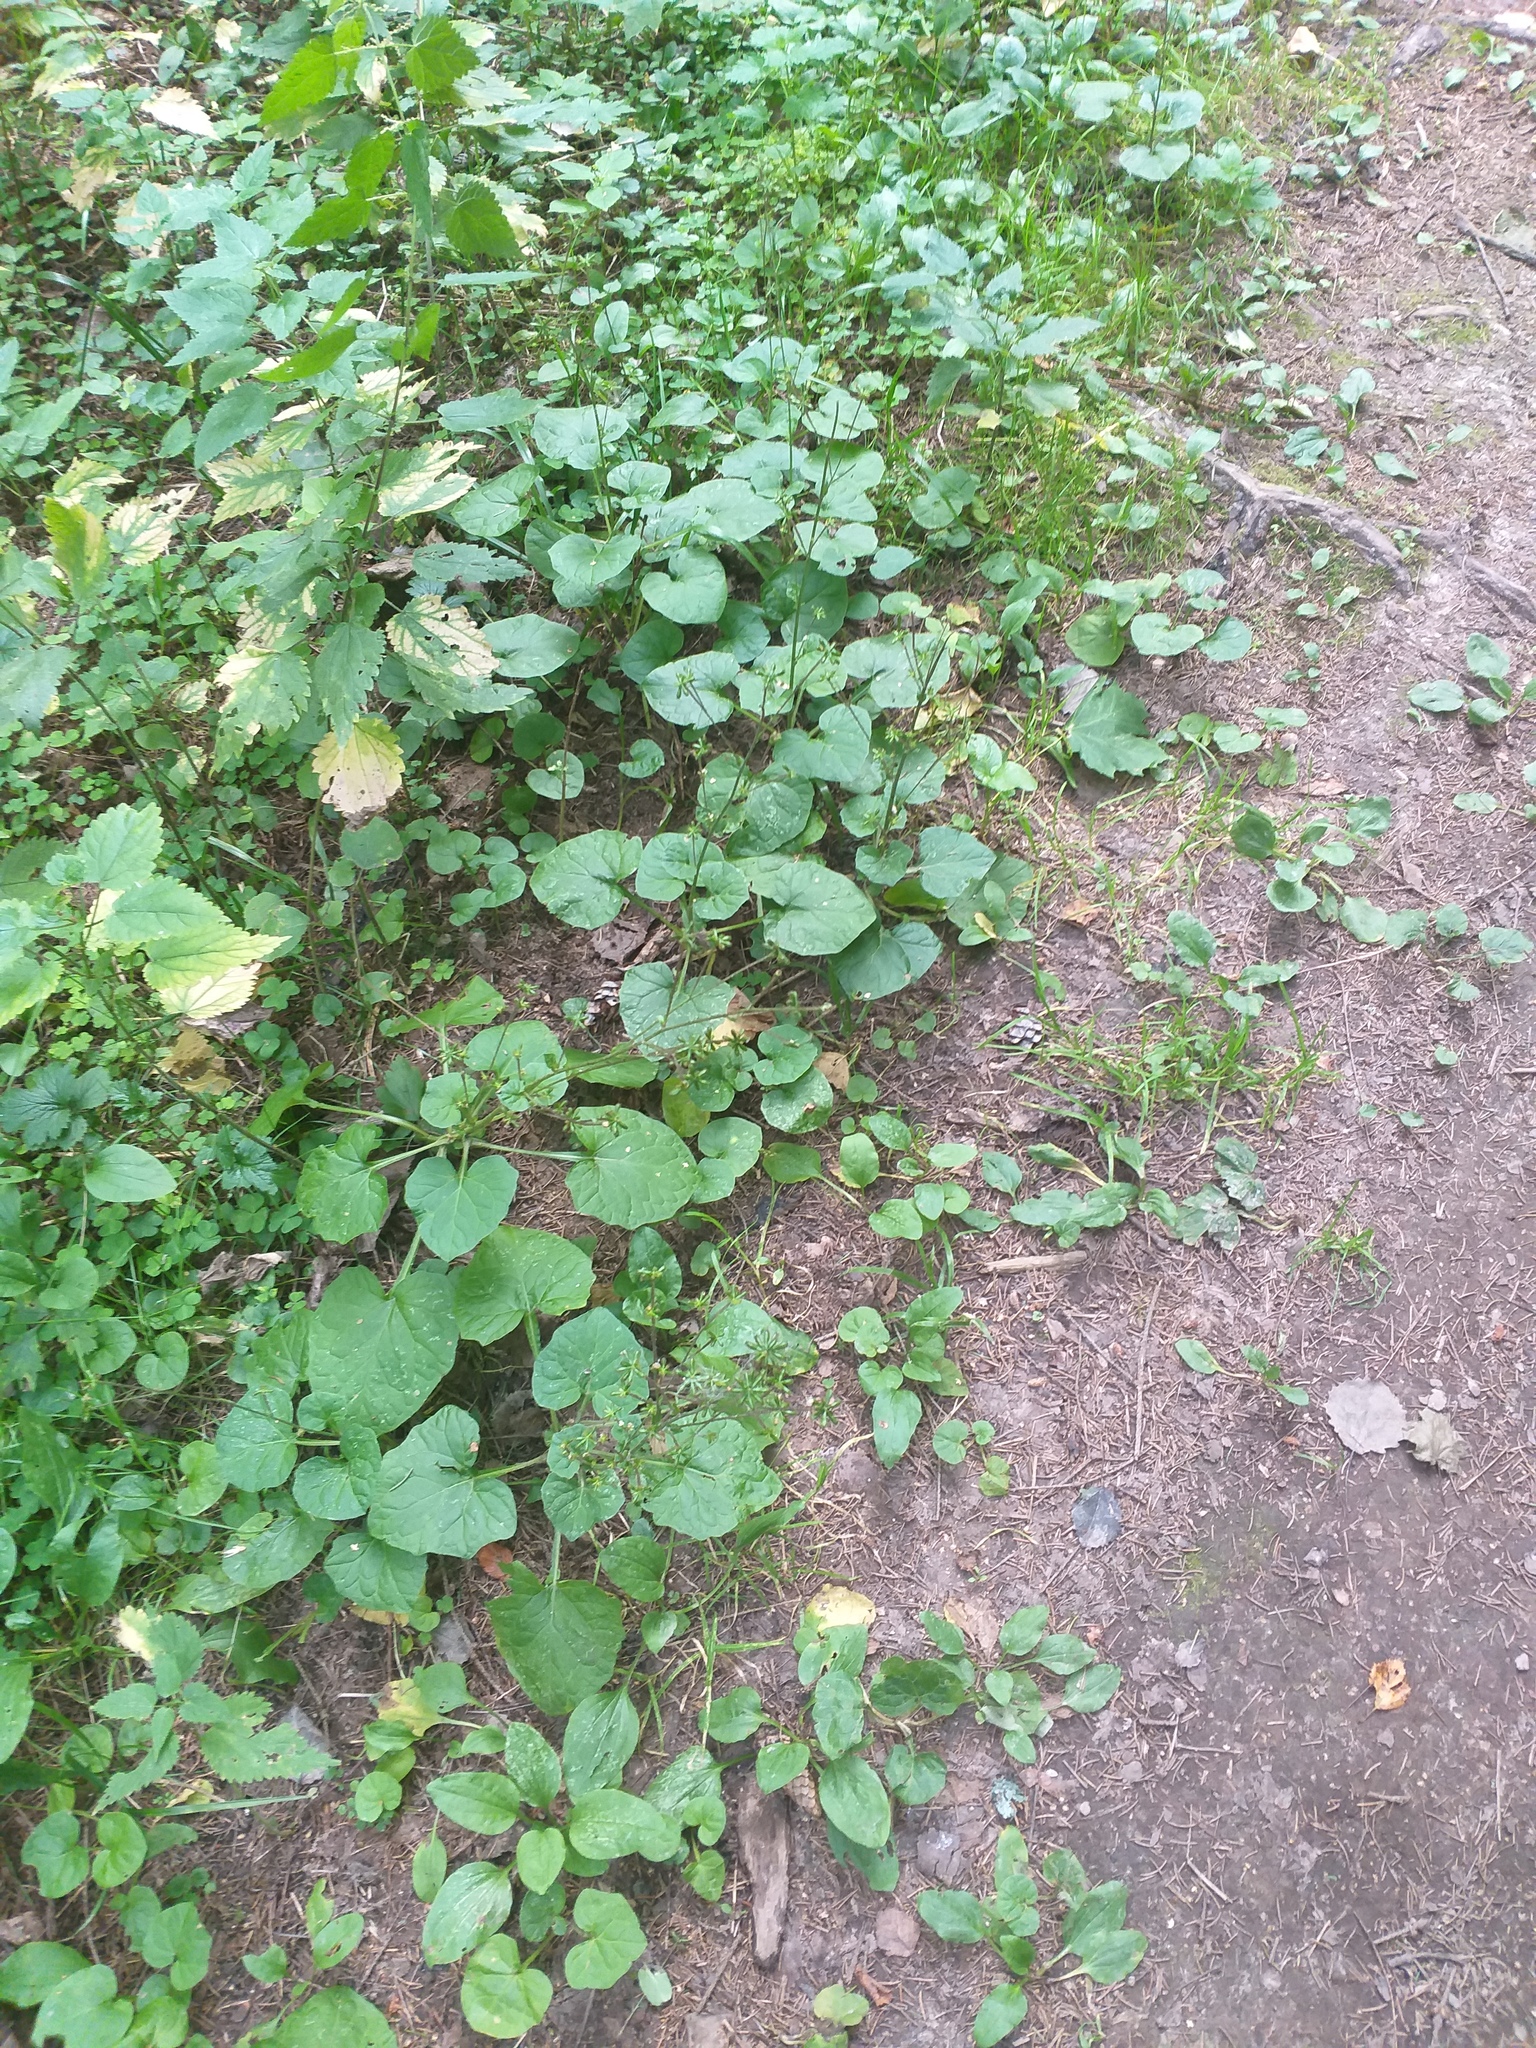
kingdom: Plantae
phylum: Tracheophyta
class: Magnoliopsida
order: Asterales
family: Asteraceae
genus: Adenocaulon
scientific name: Adenocaulon himalaicum
